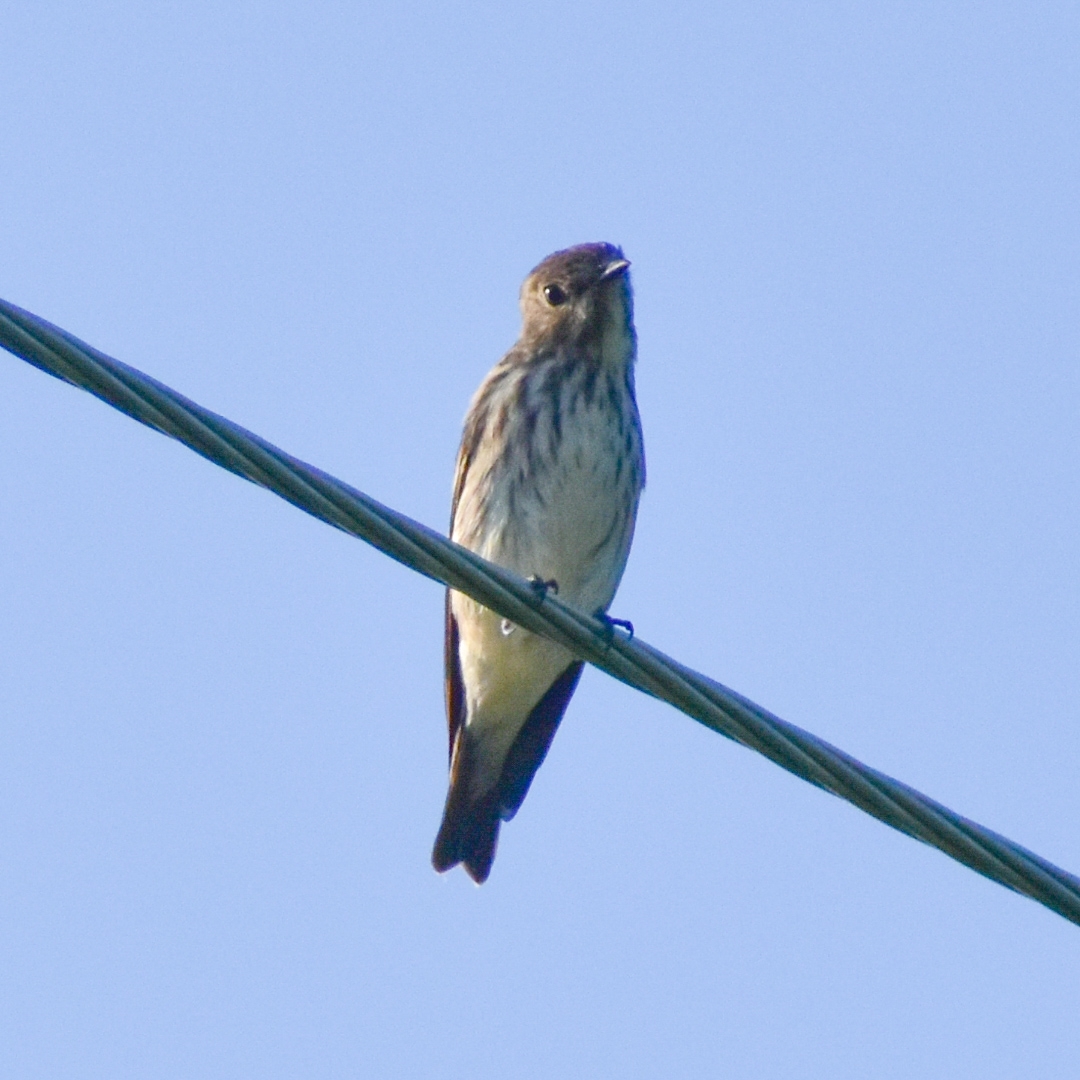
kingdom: Animalia
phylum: Chordata
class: Aves
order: Passeriformes
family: Muscicapidae
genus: Muscicapa
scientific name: Muscicapa griseisticta
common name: Gray-streaked flycatcher
